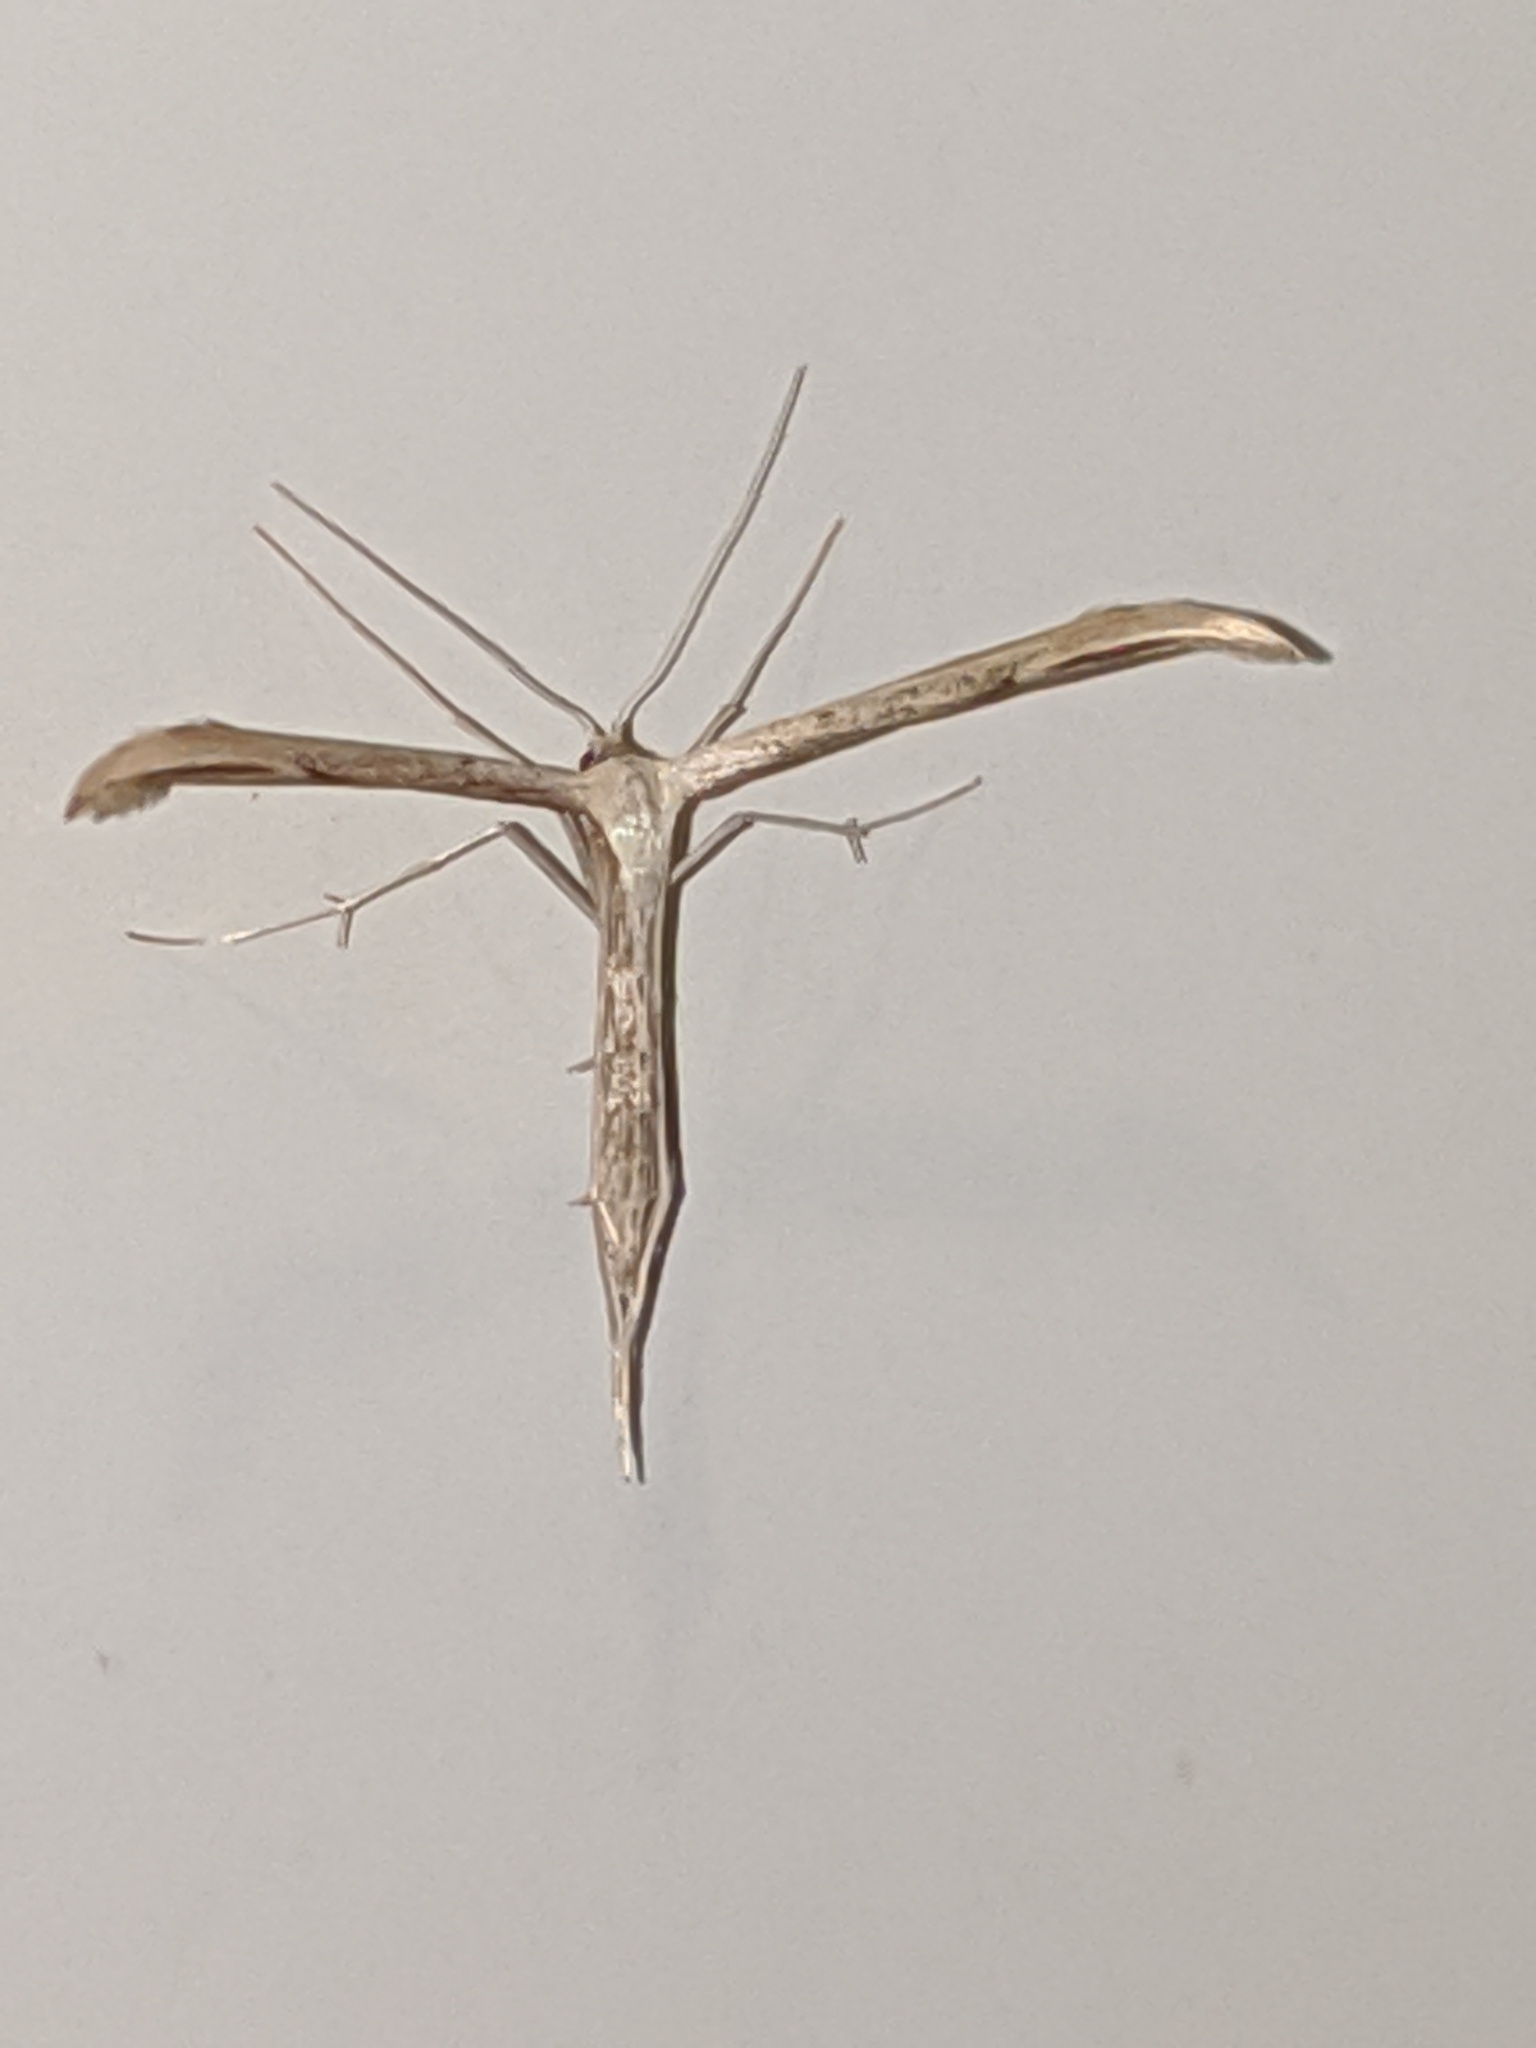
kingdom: Animalia
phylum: Arthropoda
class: Insecta
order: Lepidoptera
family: Pterophoridae
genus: Emmelina
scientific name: Emmelina monodactyla
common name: Common plume
